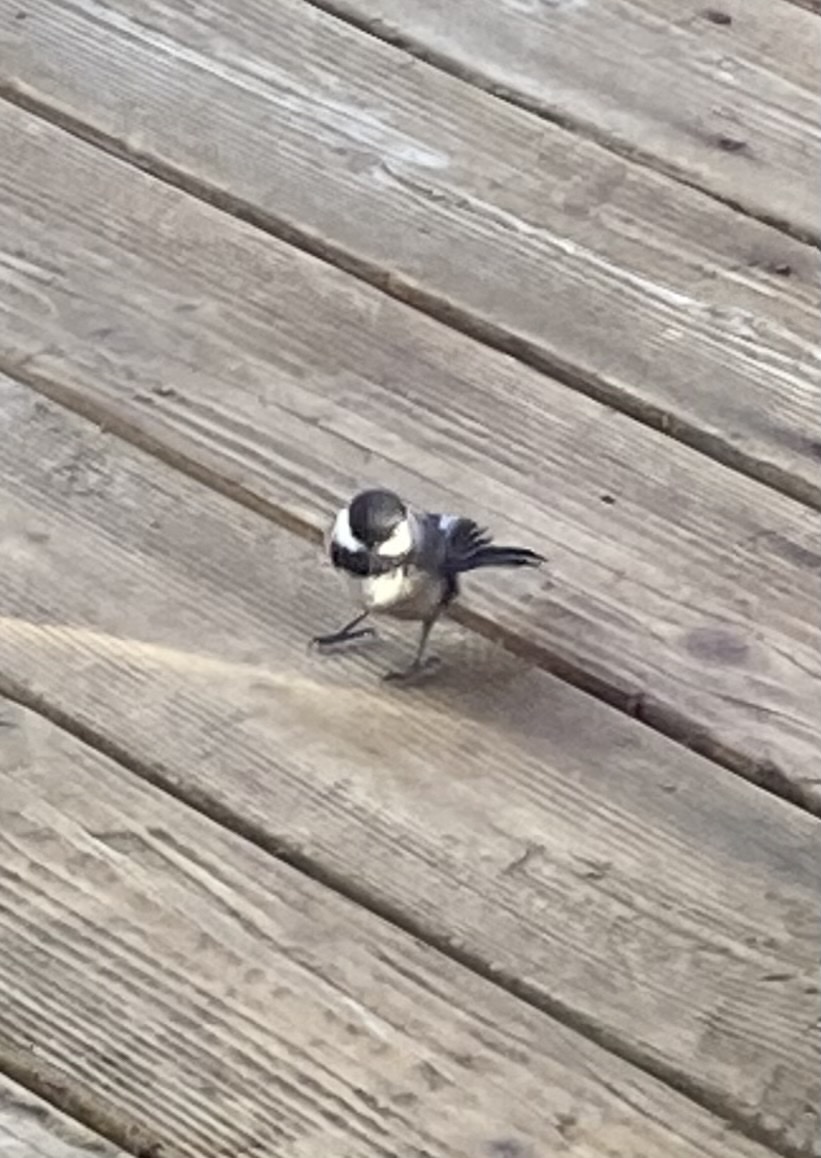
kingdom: Animalia
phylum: Chordata
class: Aves
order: Passeriformes
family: Paridae
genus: Poecile
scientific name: Poecile atricapillus
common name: Black-capped chickadee
